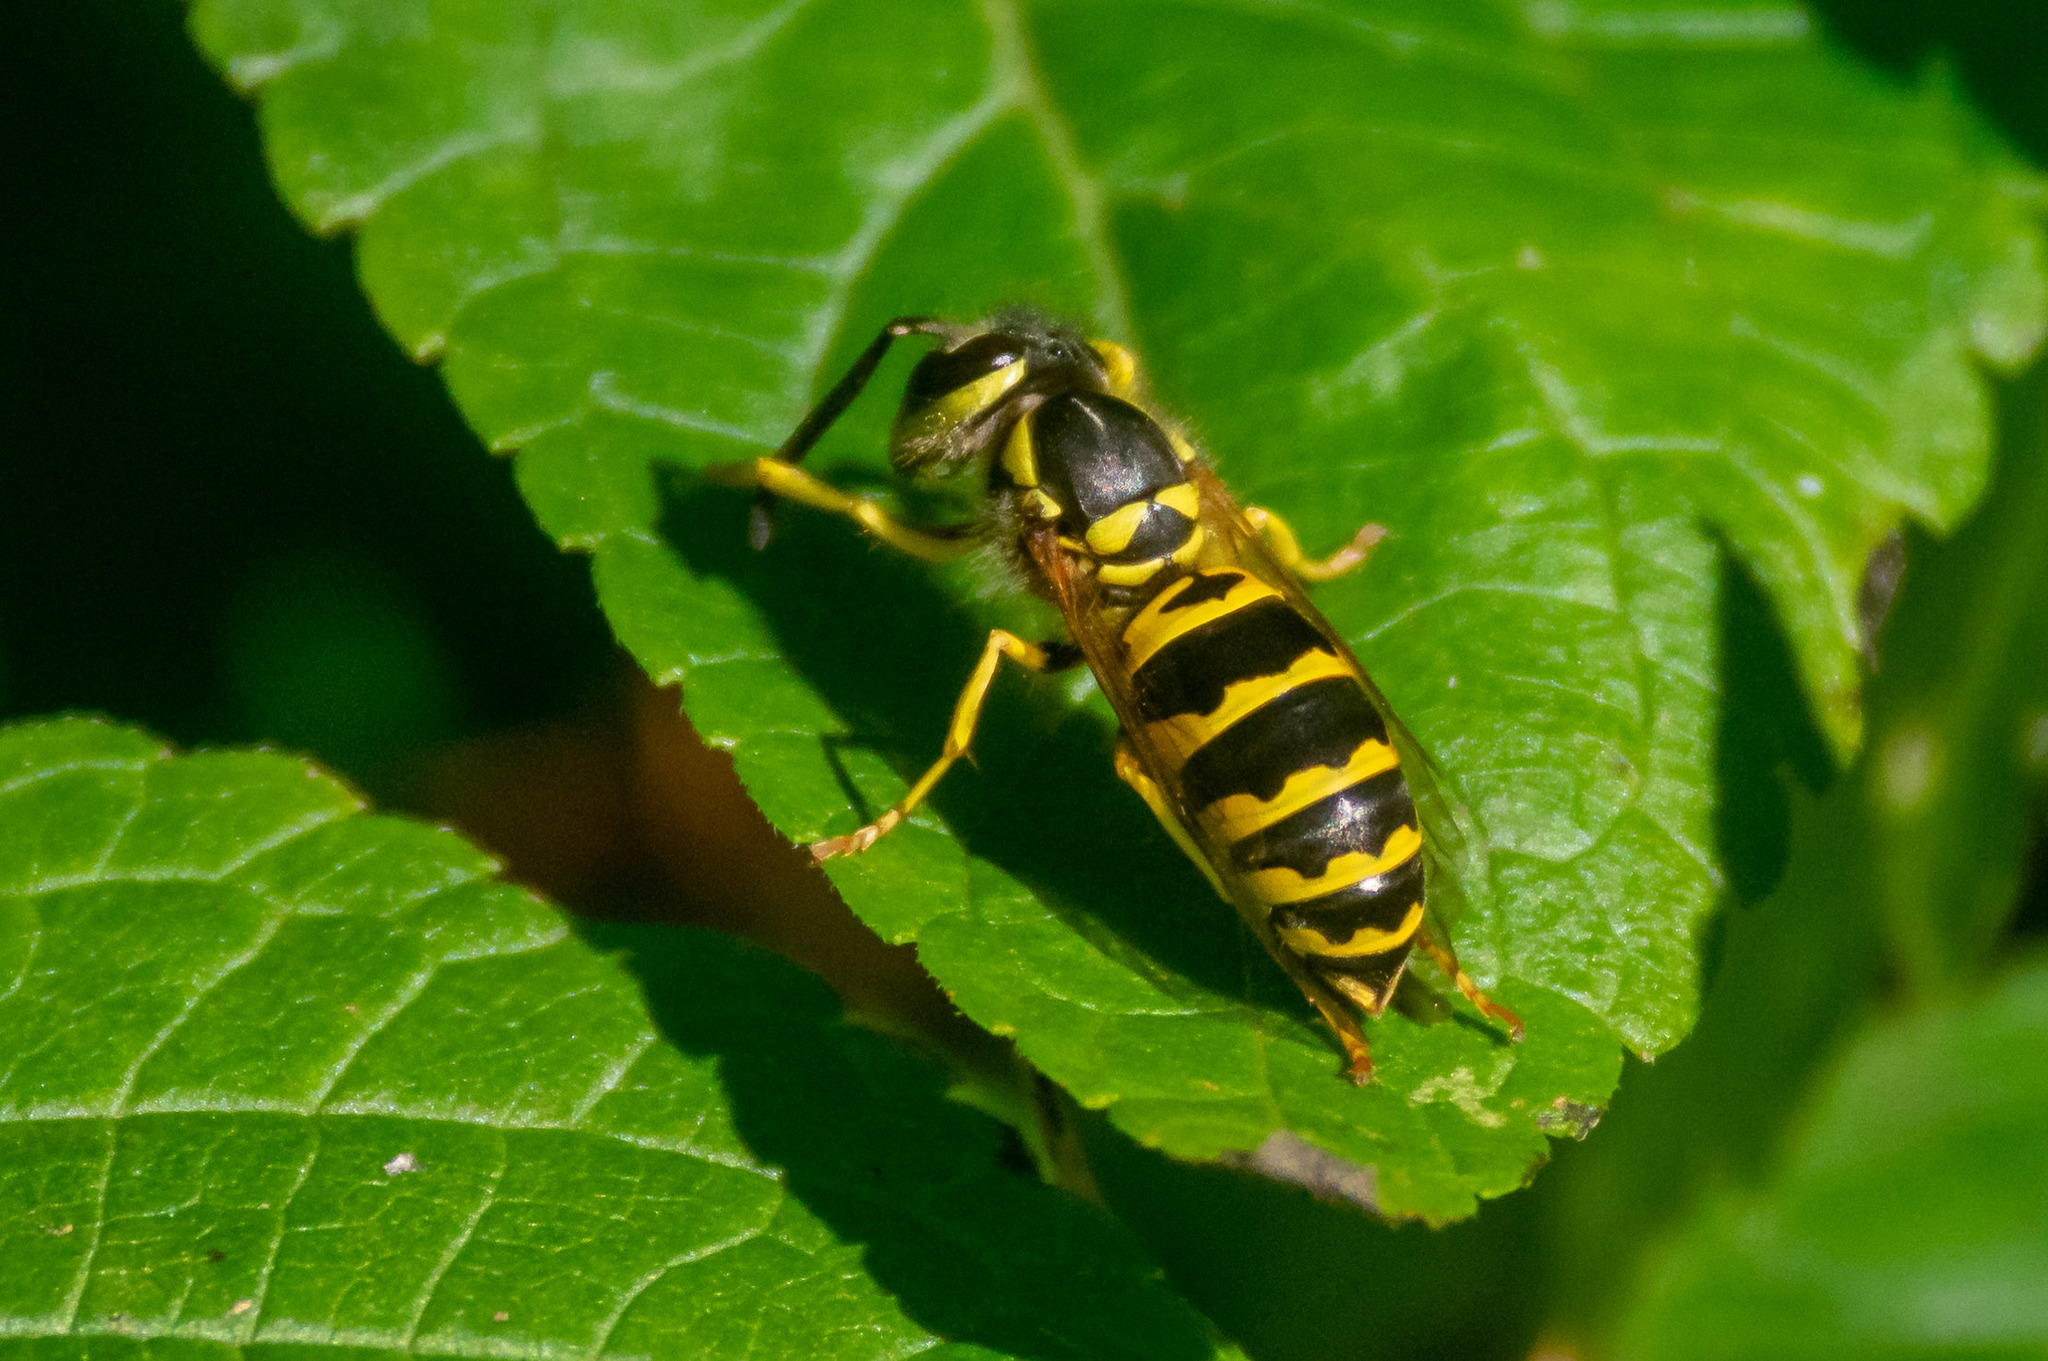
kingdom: Animalia
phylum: Arthropoda
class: Insecta
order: Hymenoptera
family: Vespidae
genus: Vespula
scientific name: Vespula maculifrons
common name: Eastern yellowjacket
